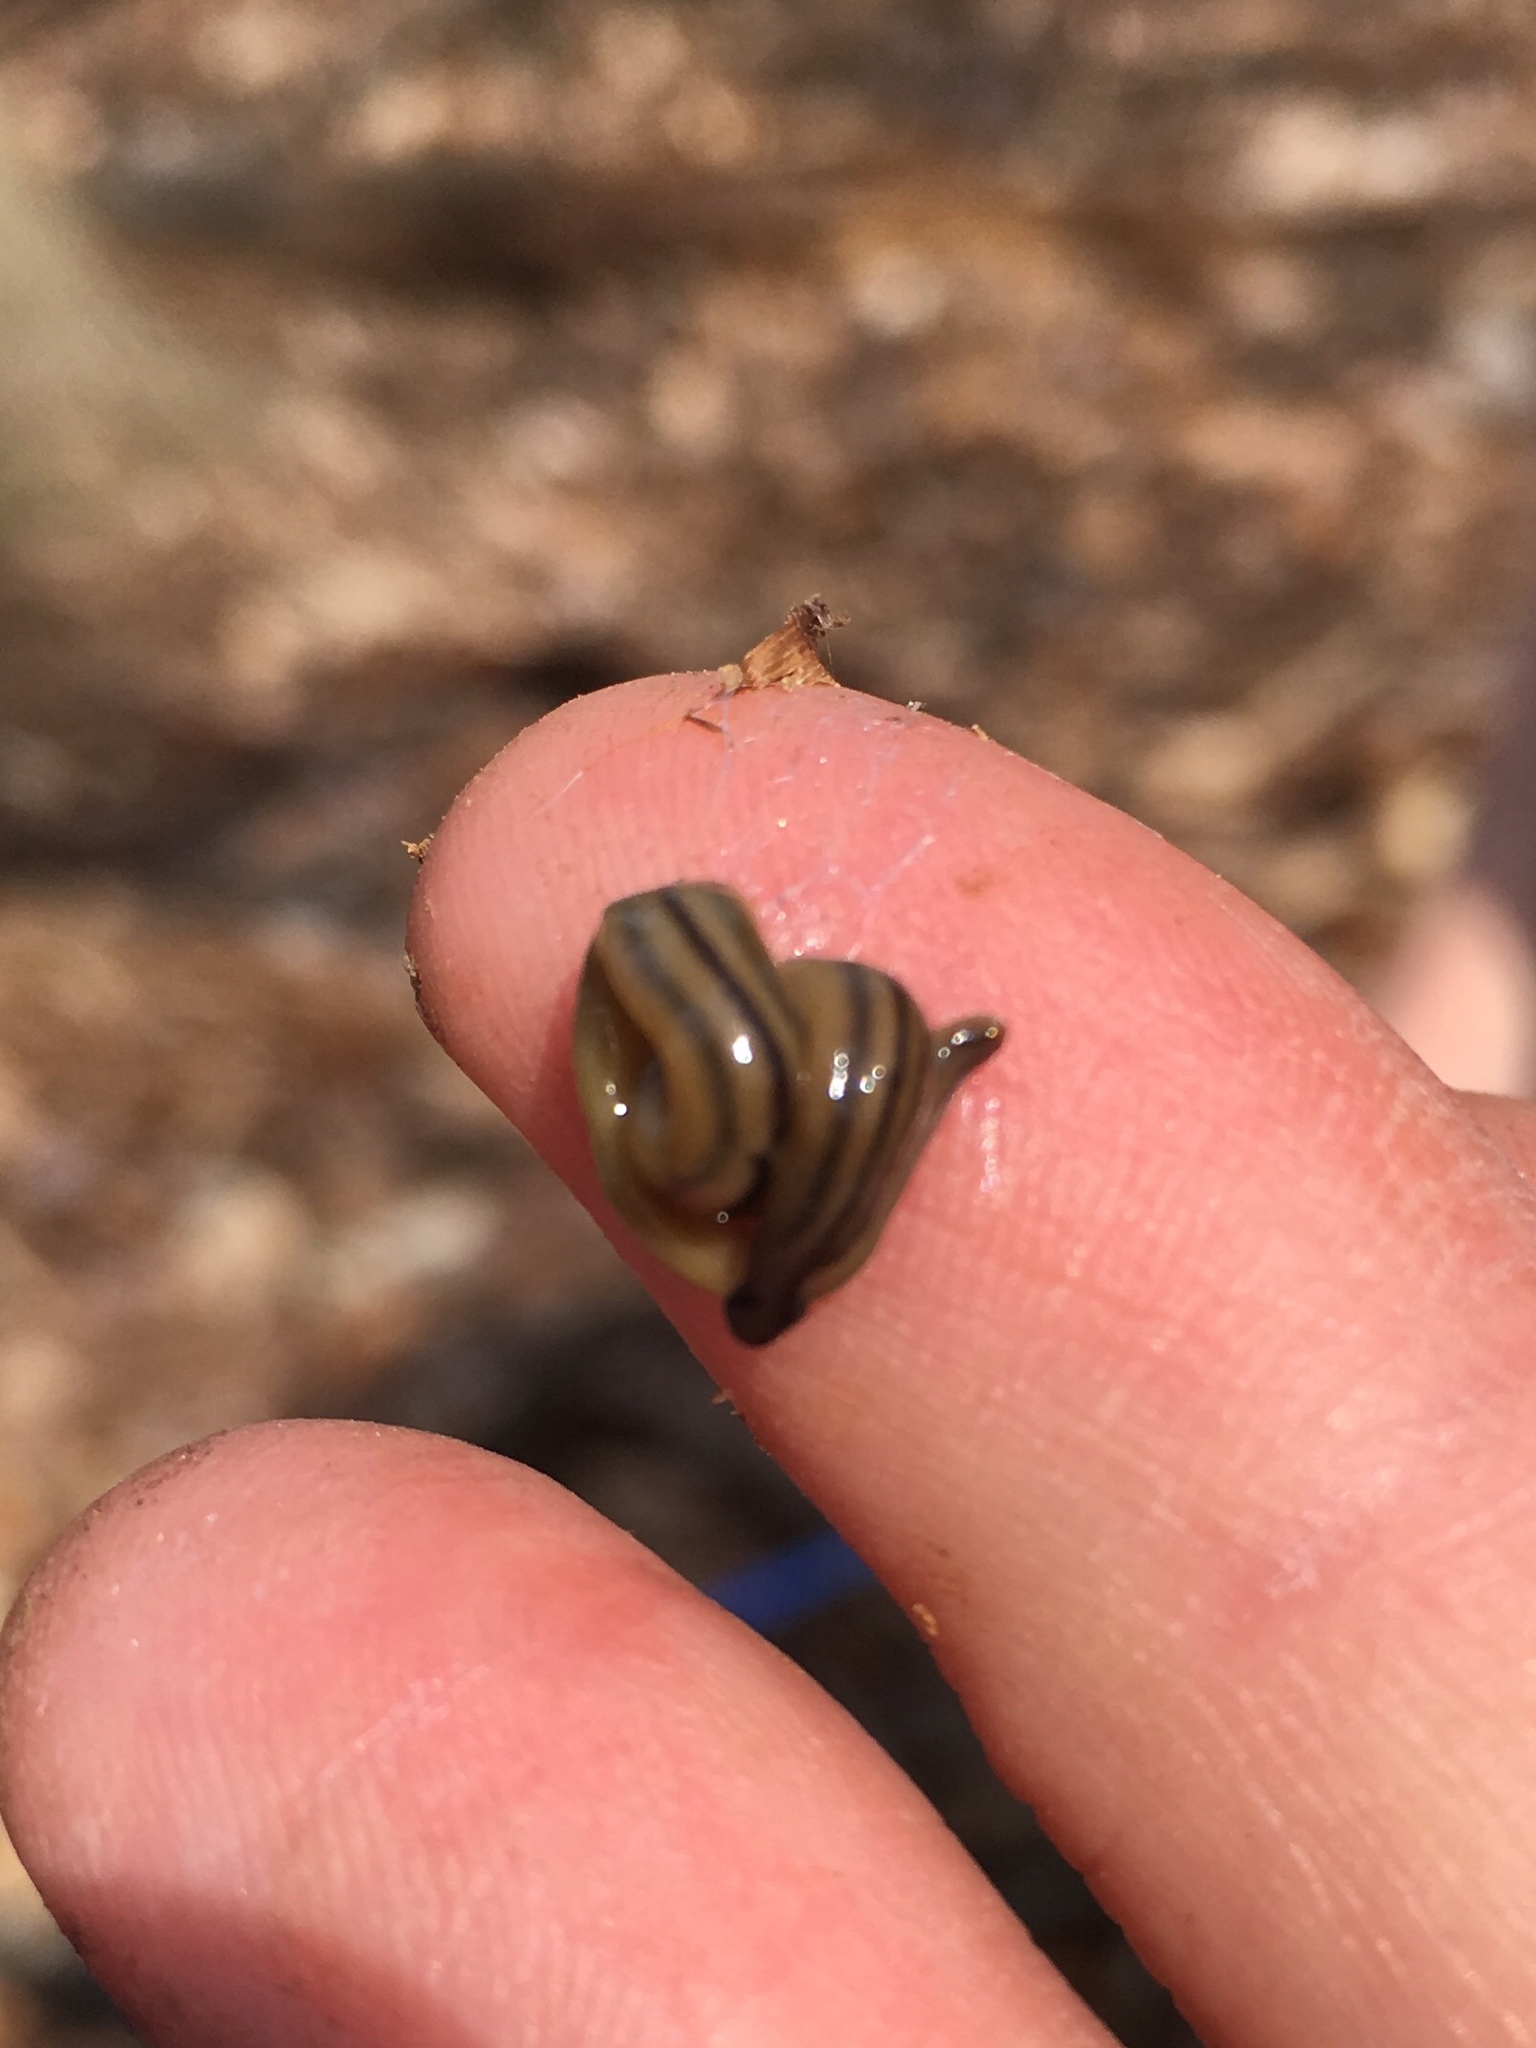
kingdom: Animalia
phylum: Platyhelminthes
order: Tricladida
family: Geoplanidae
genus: Bipalium
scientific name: Bipalium pennsylvanicum
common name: Three-lined land planarian
